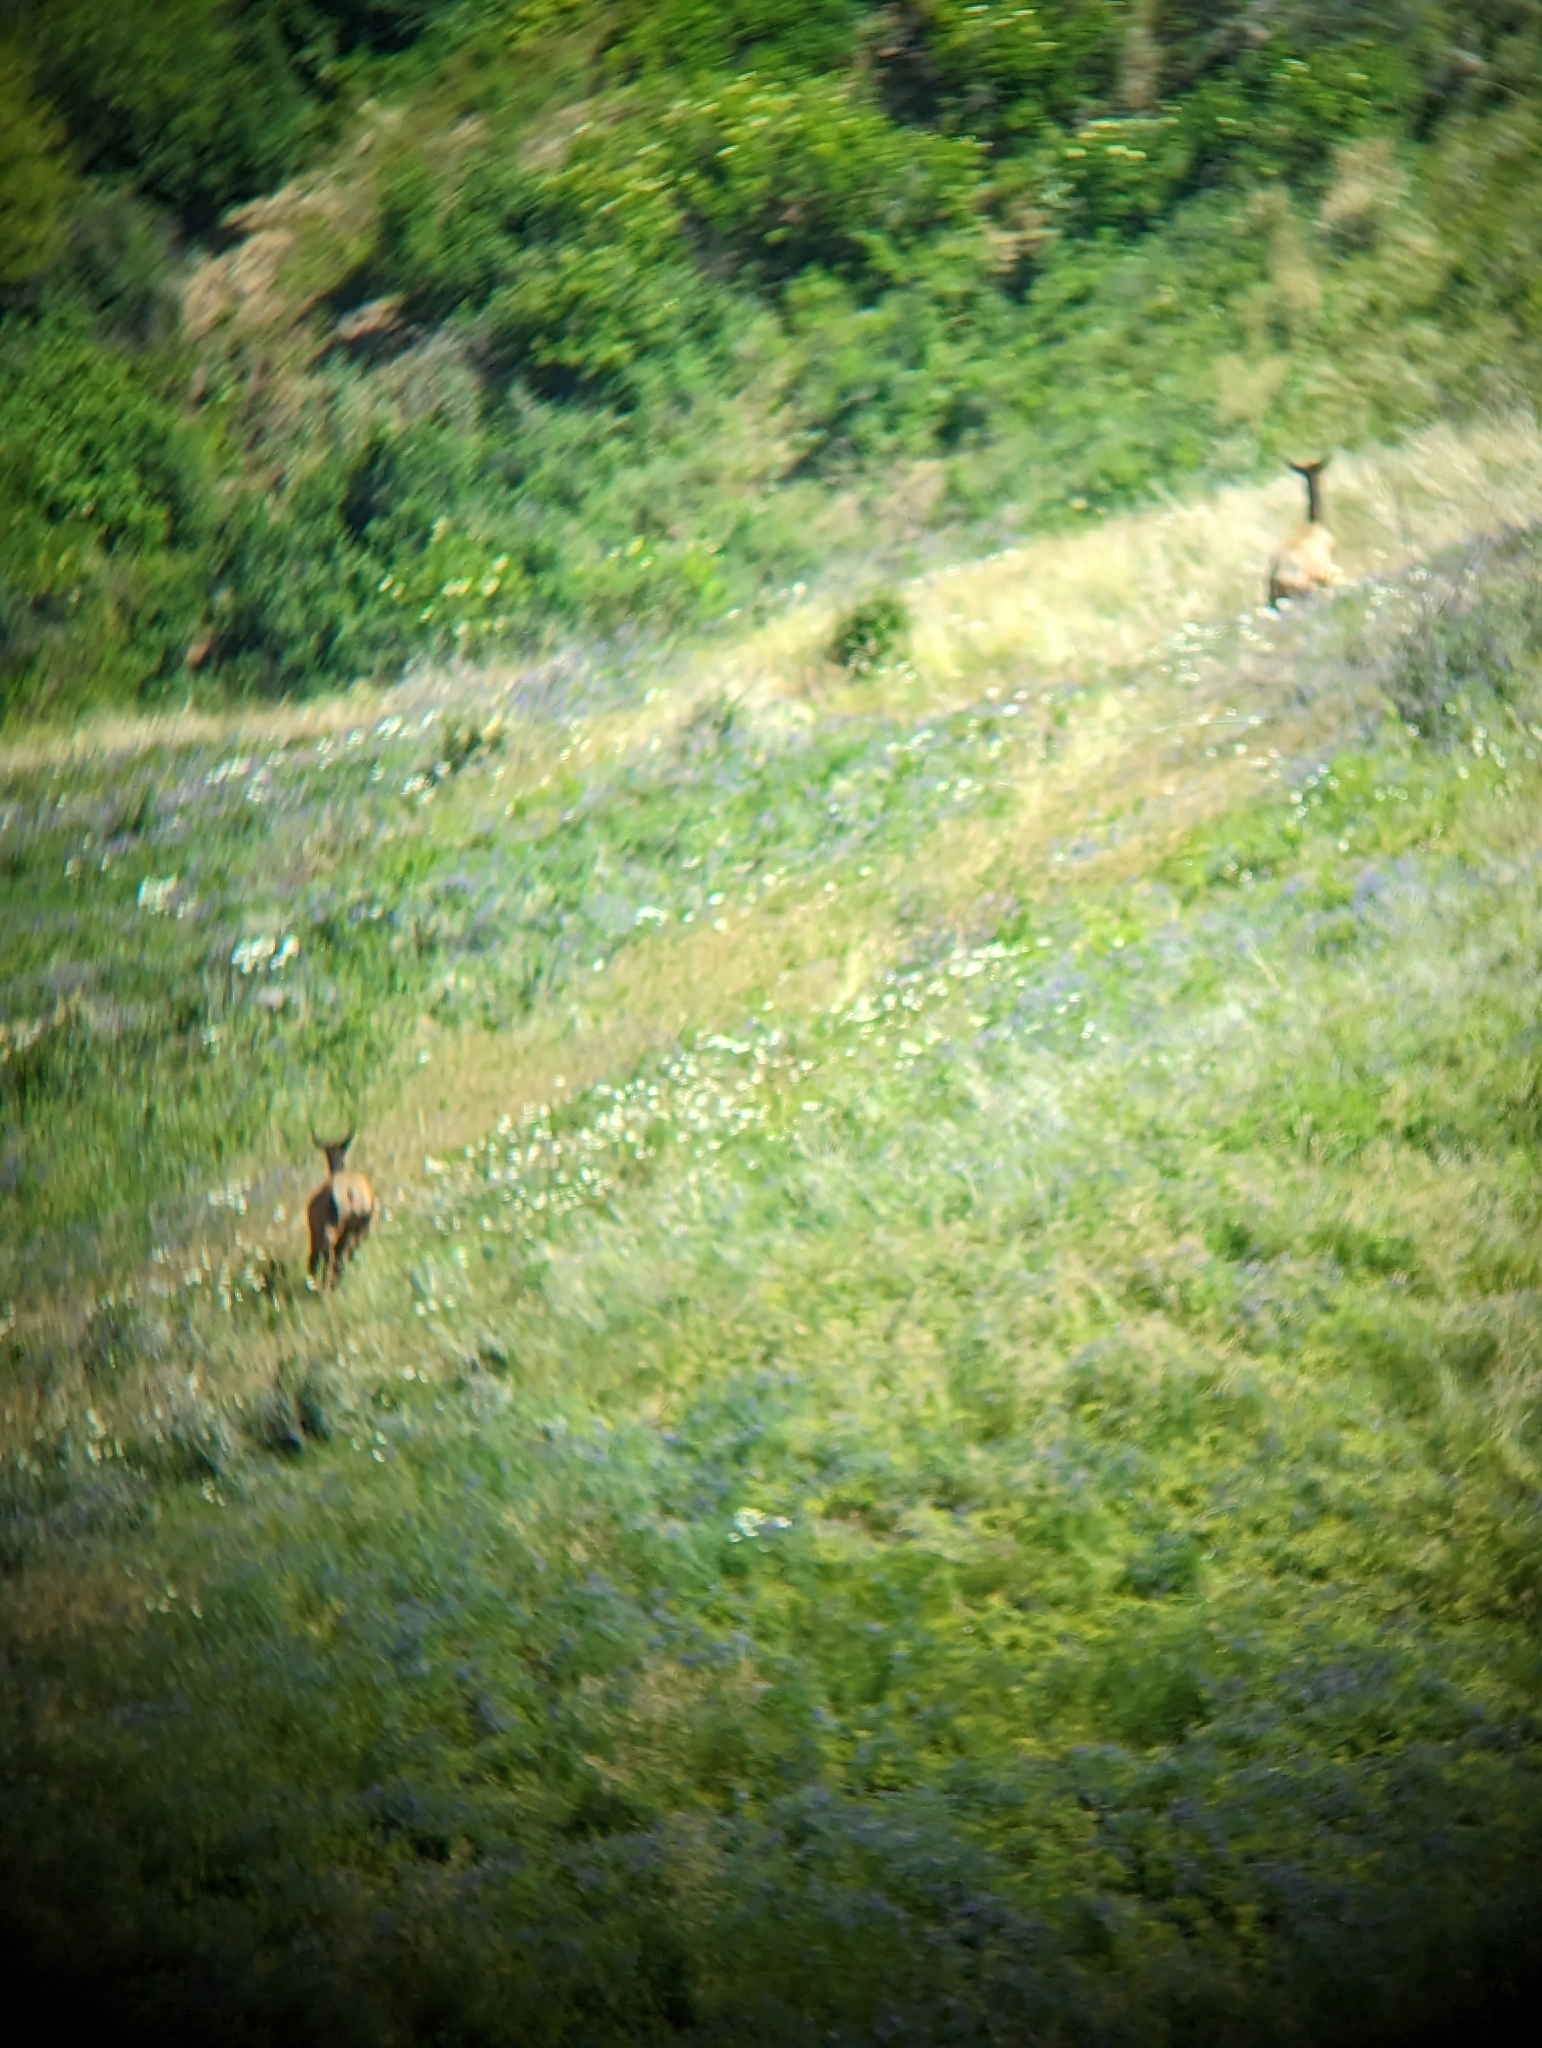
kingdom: Animalia
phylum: Chordata
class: Mammalia
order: Artiodactyla
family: Cervidae
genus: Cervus
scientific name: Cervus elaphus
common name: Red deer
